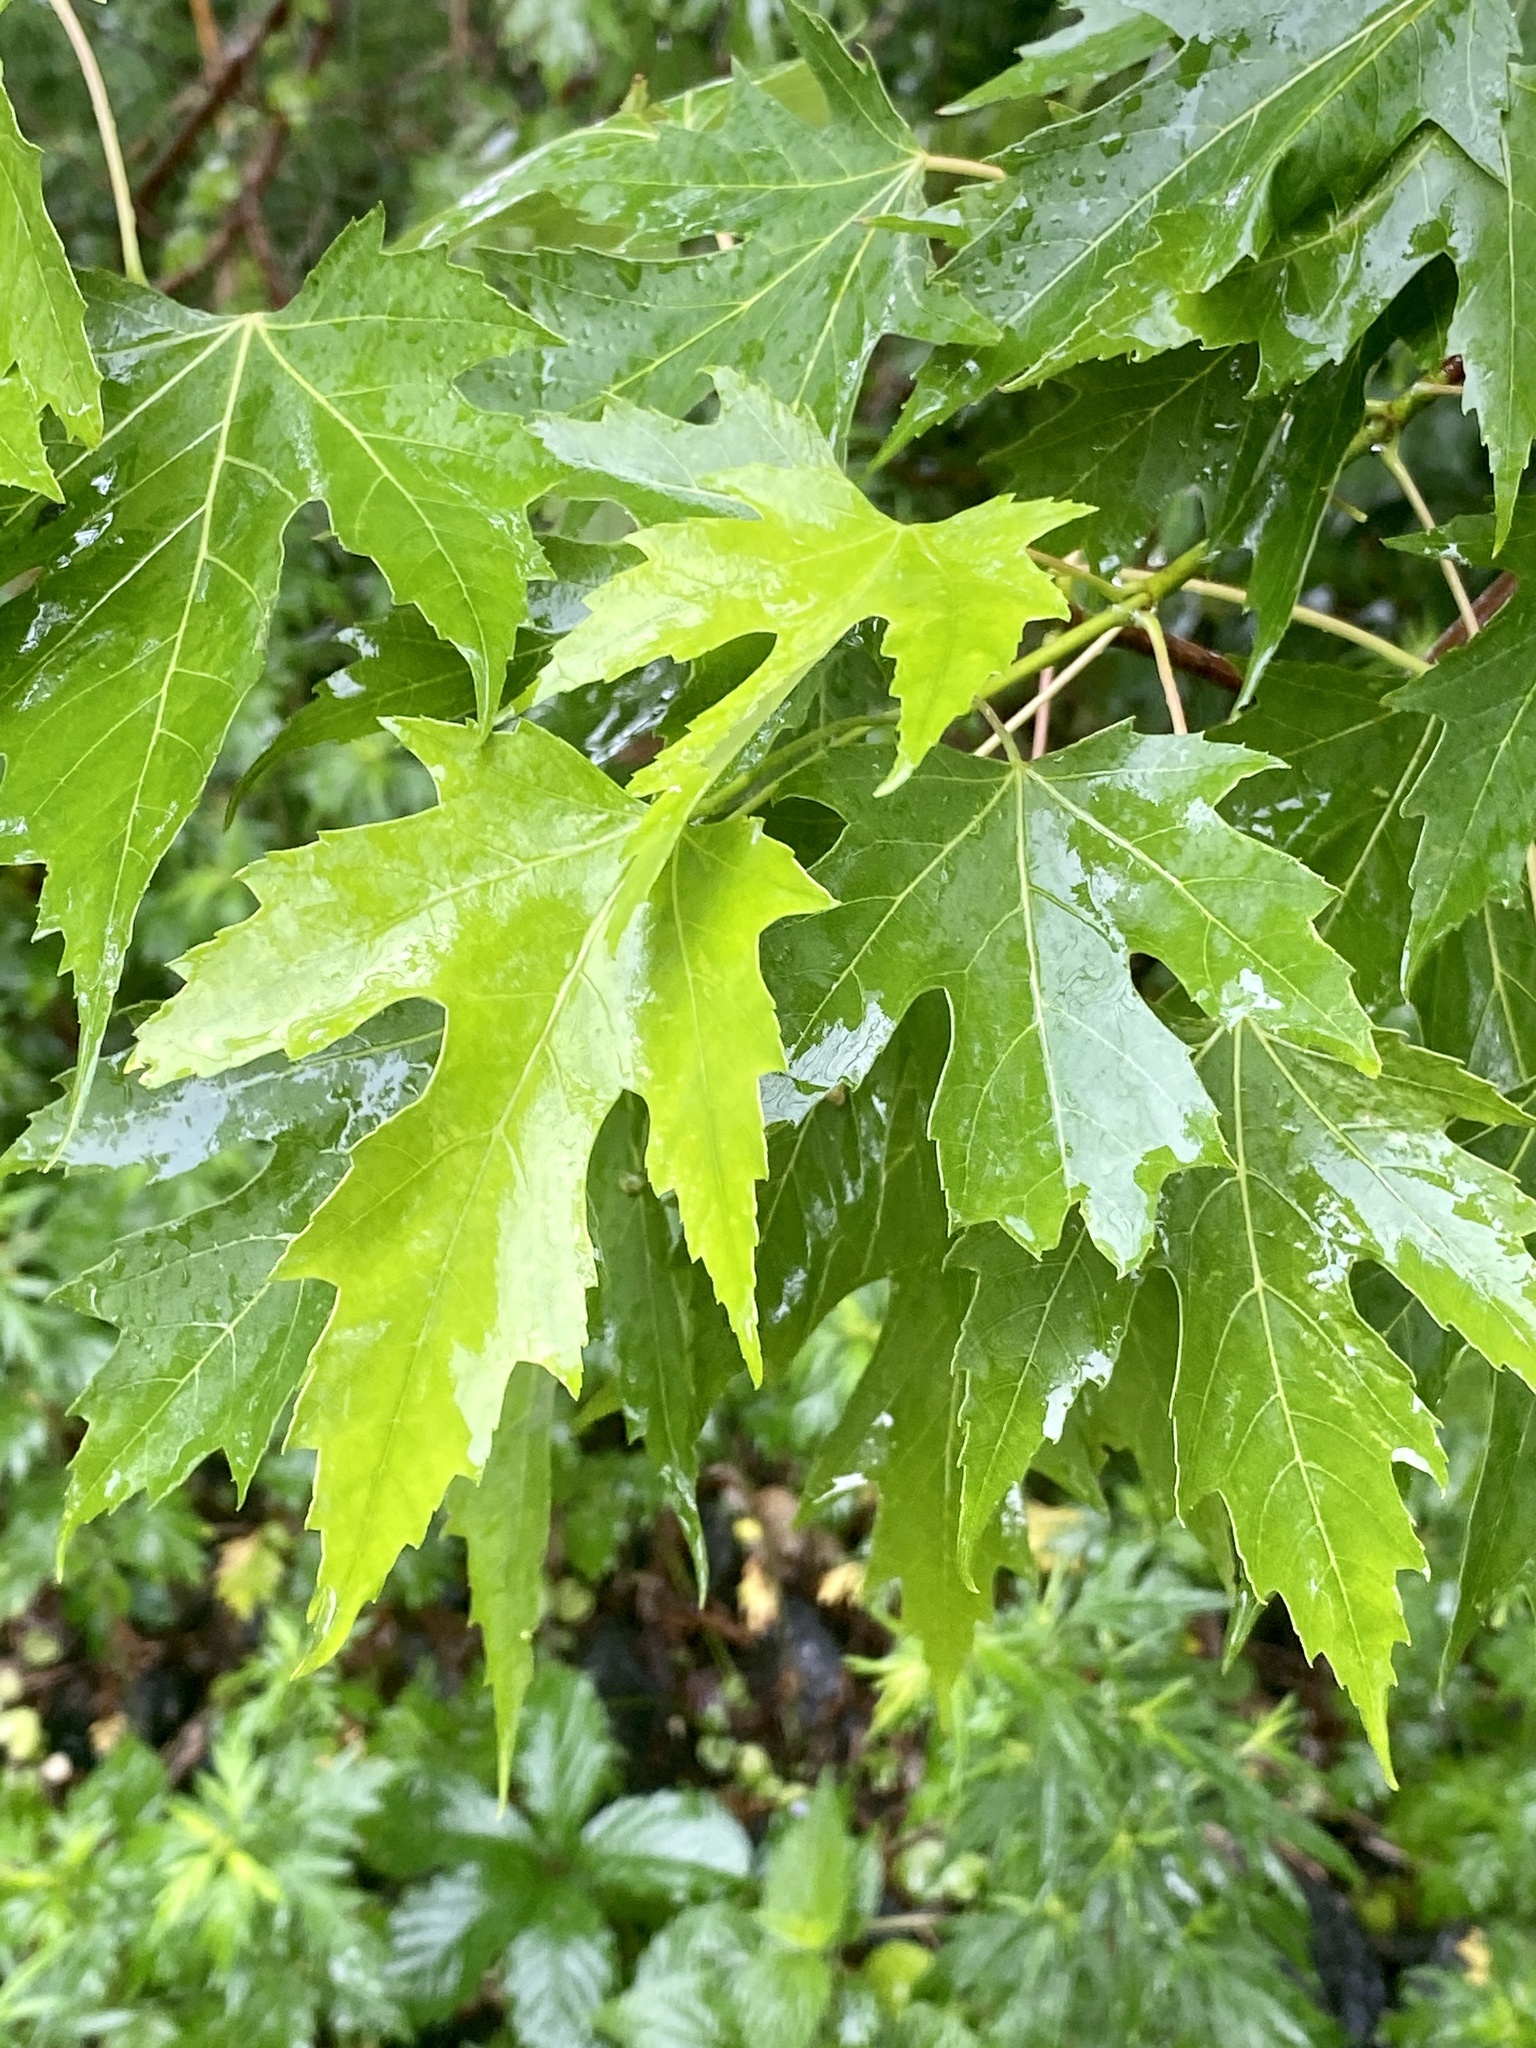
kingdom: Plantae
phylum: Tracheophyta
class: Magnoliopsida
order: Sapindales
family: Sapindaceae
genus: Acer
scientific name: Acer saccharinum
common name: Silver maple
